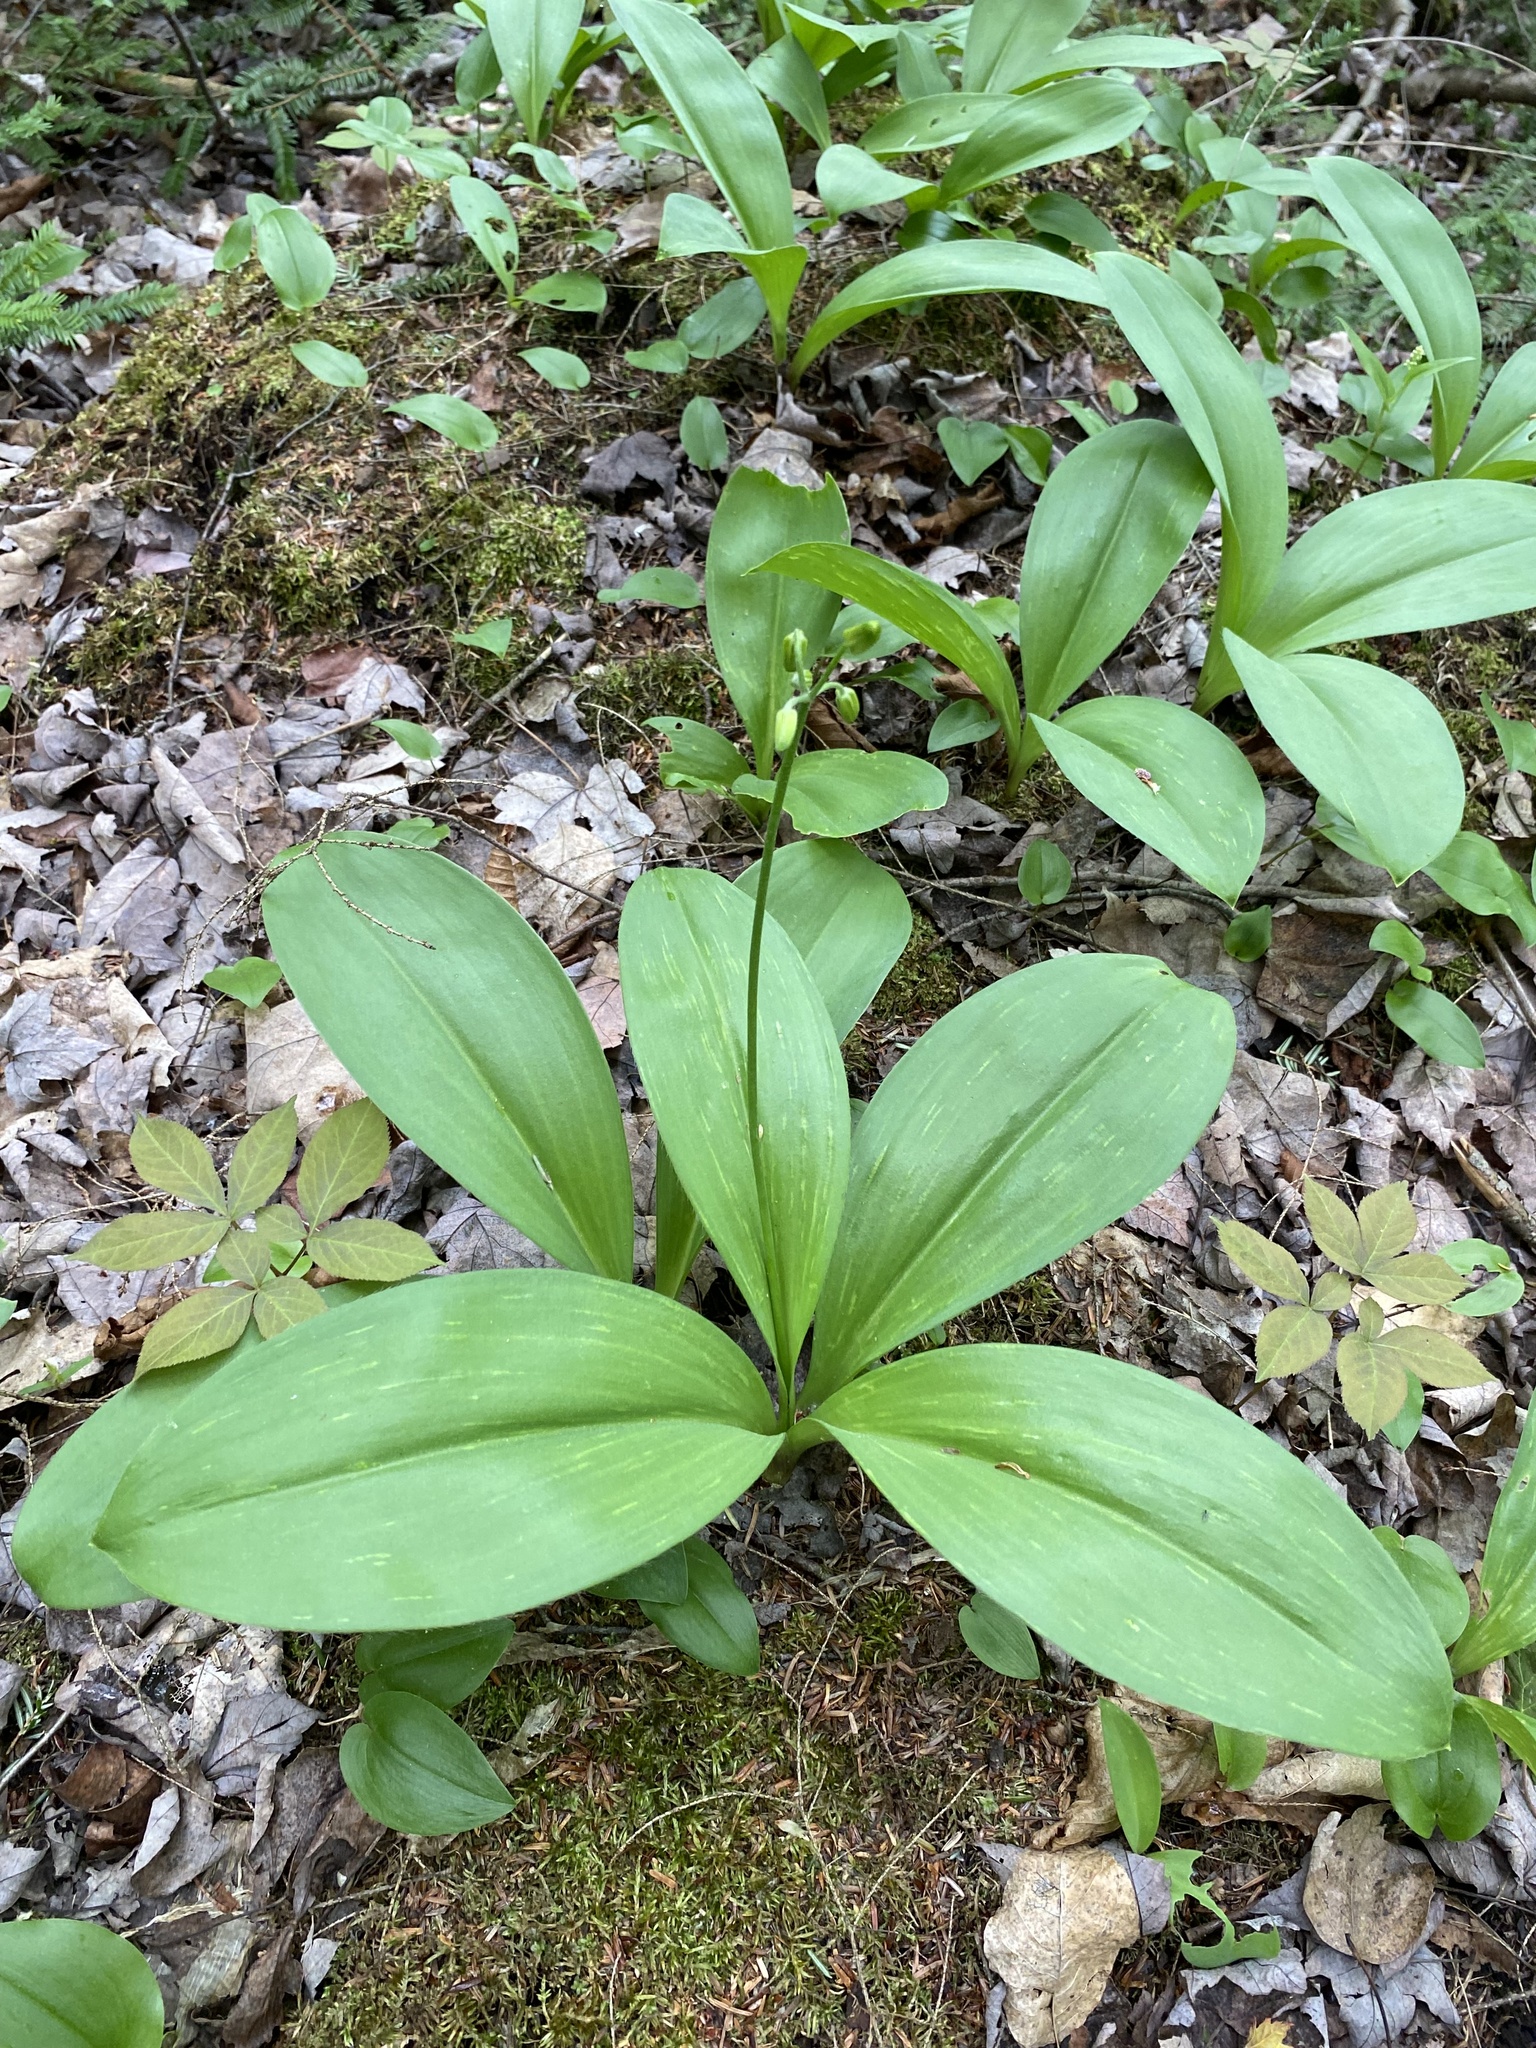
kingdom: Plantae
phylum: Tracheophyta
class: Liliopsida
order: Liliales
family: Liliaceae
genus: Clintonia
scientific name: Clintonia borealis
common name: Yellow clintonia
